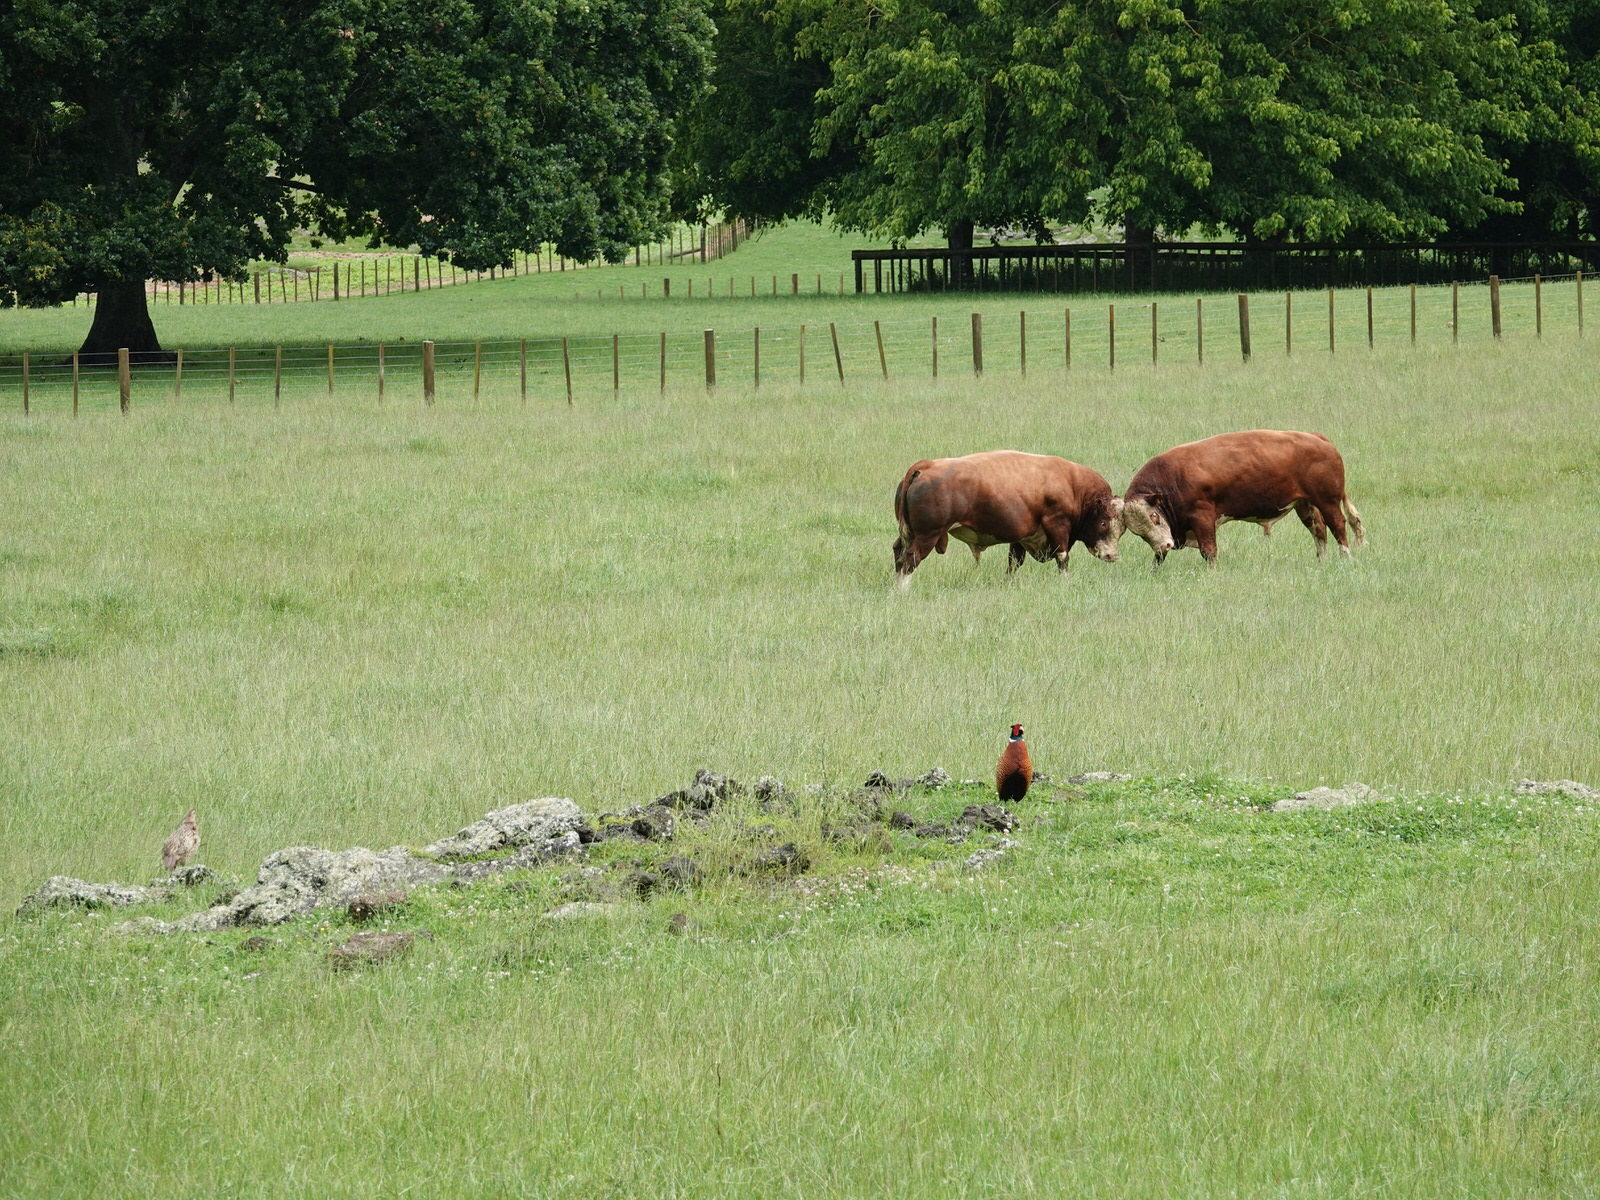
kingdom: Animalia
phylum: Chordata
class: Aves
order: Galliformes
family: Phasianidae
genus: Phasianus
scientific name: Phasianus colchicus
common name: Common pheasant
